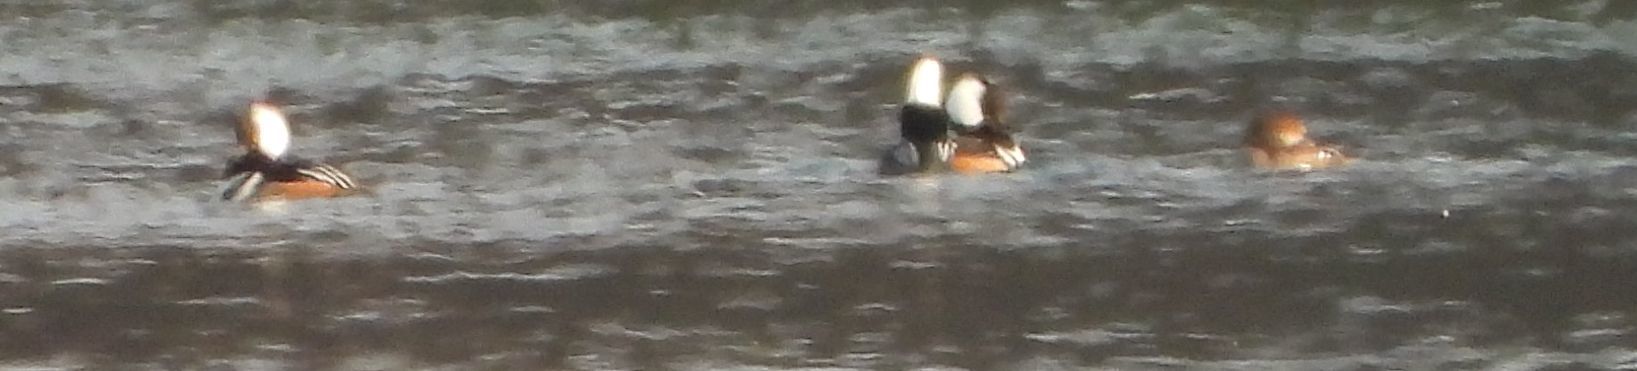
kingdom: Animalia
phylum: Chordata
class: Aves
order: Anseriformes
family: Anatidae
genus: Lophodytes
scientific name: Lophodytes cucullatus
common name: Hooded merganser
